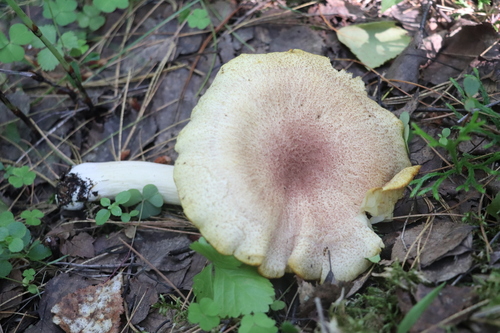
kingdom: Fungi
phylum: Basidiomycota
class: Agaricomycetes
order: Agaricales
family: Tricholomataceae
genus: Tricholomopsis
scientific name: Tricholomopsis rutilans
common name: Plums and custard
